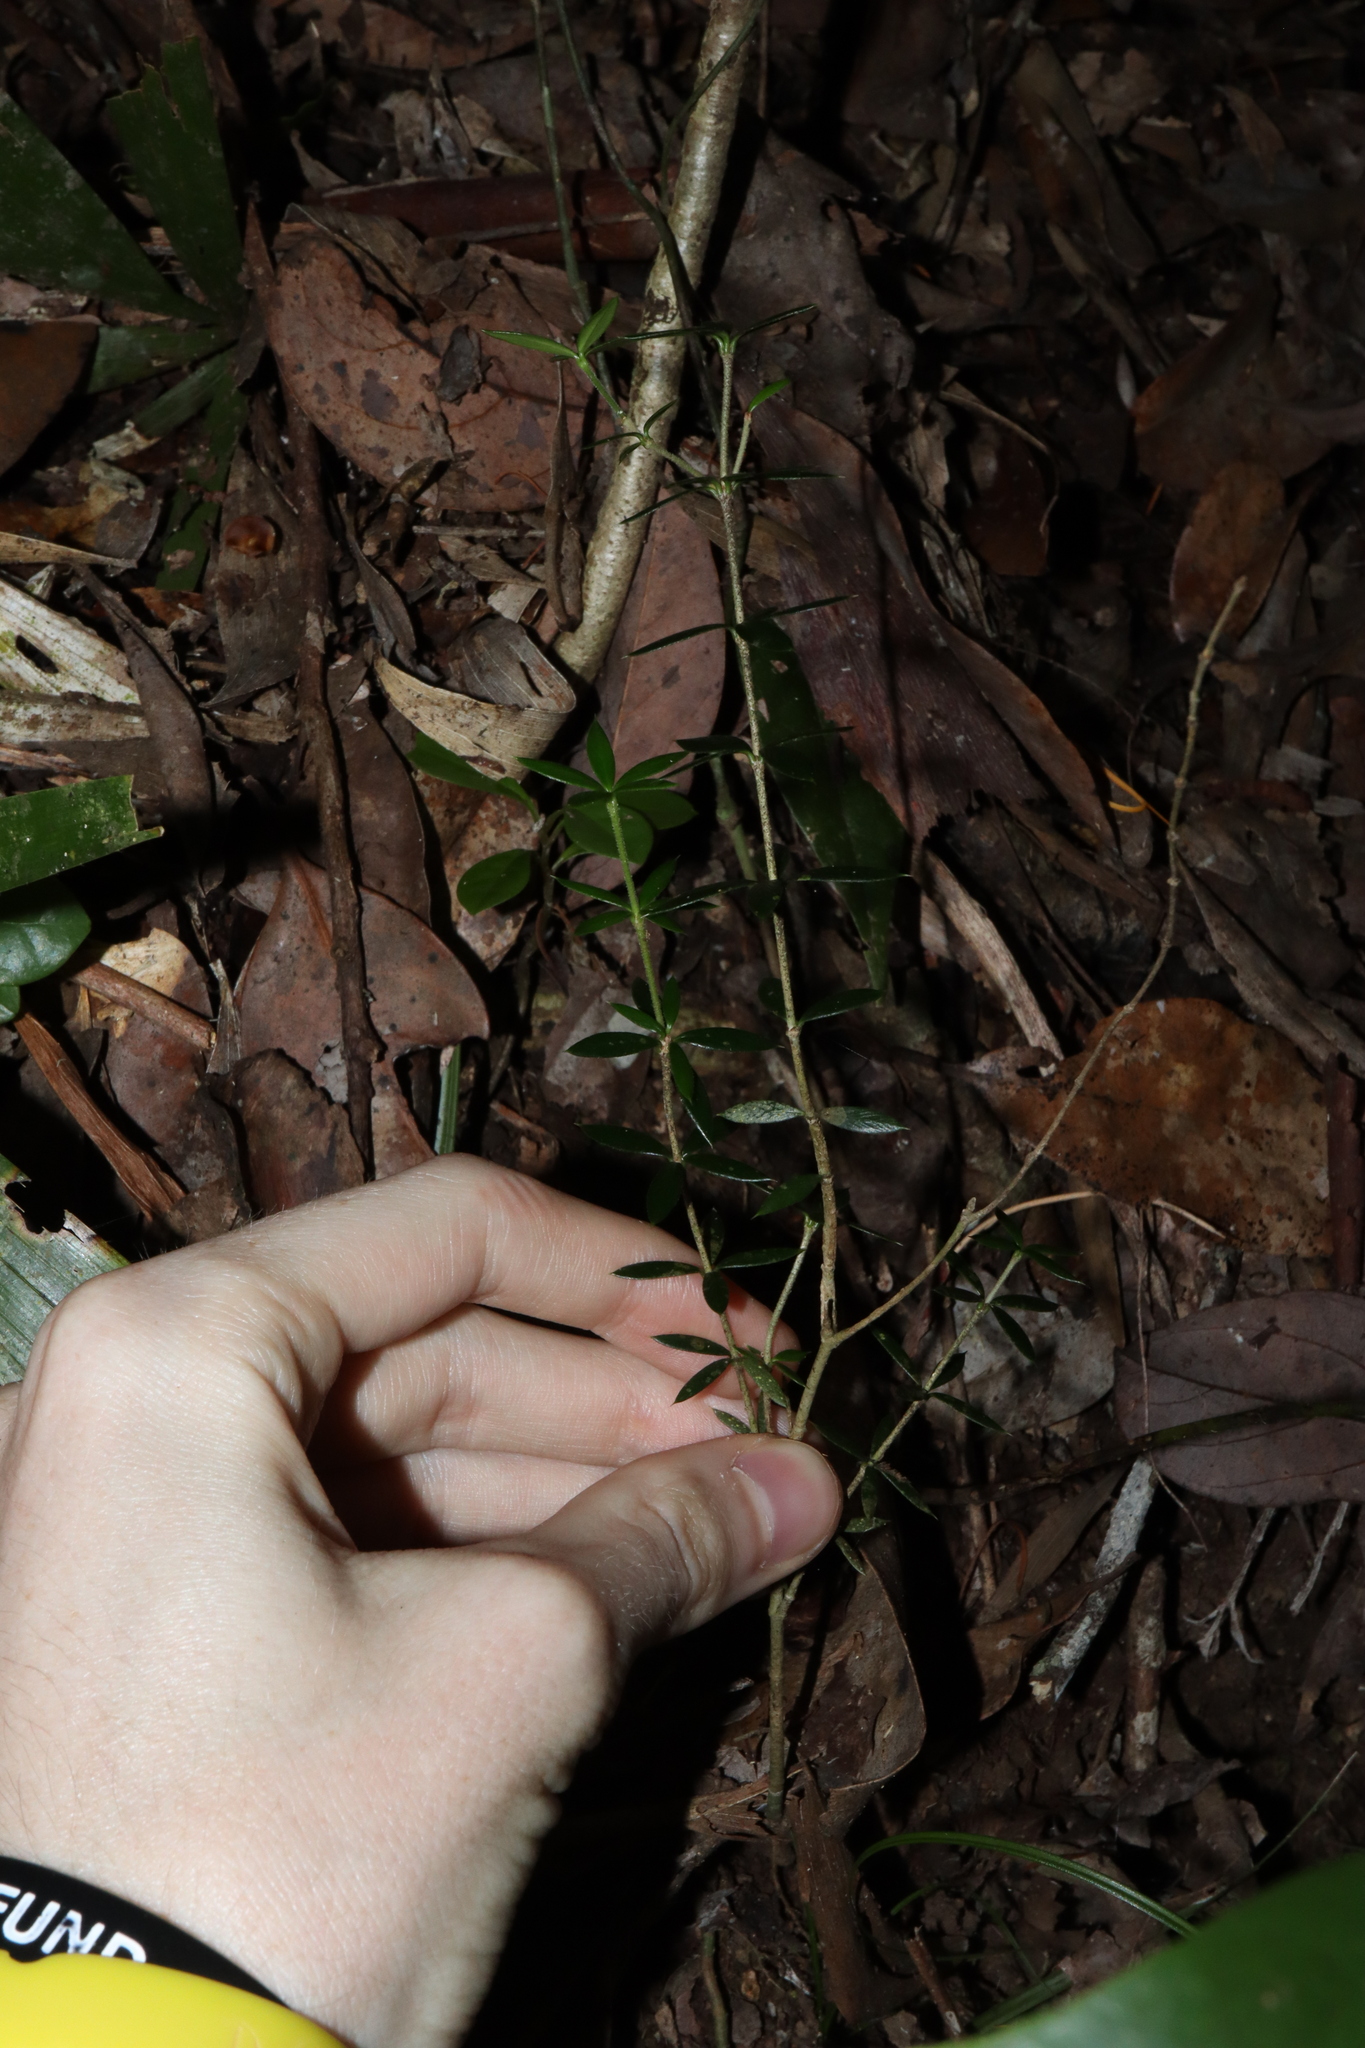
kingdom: Plantae
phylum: Tracheophyta
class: Magnoliopsida
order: Gentianales
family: Apocynaceae
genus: Alyxia
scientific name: Alyxia ruscifolia
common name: Chainfruit
